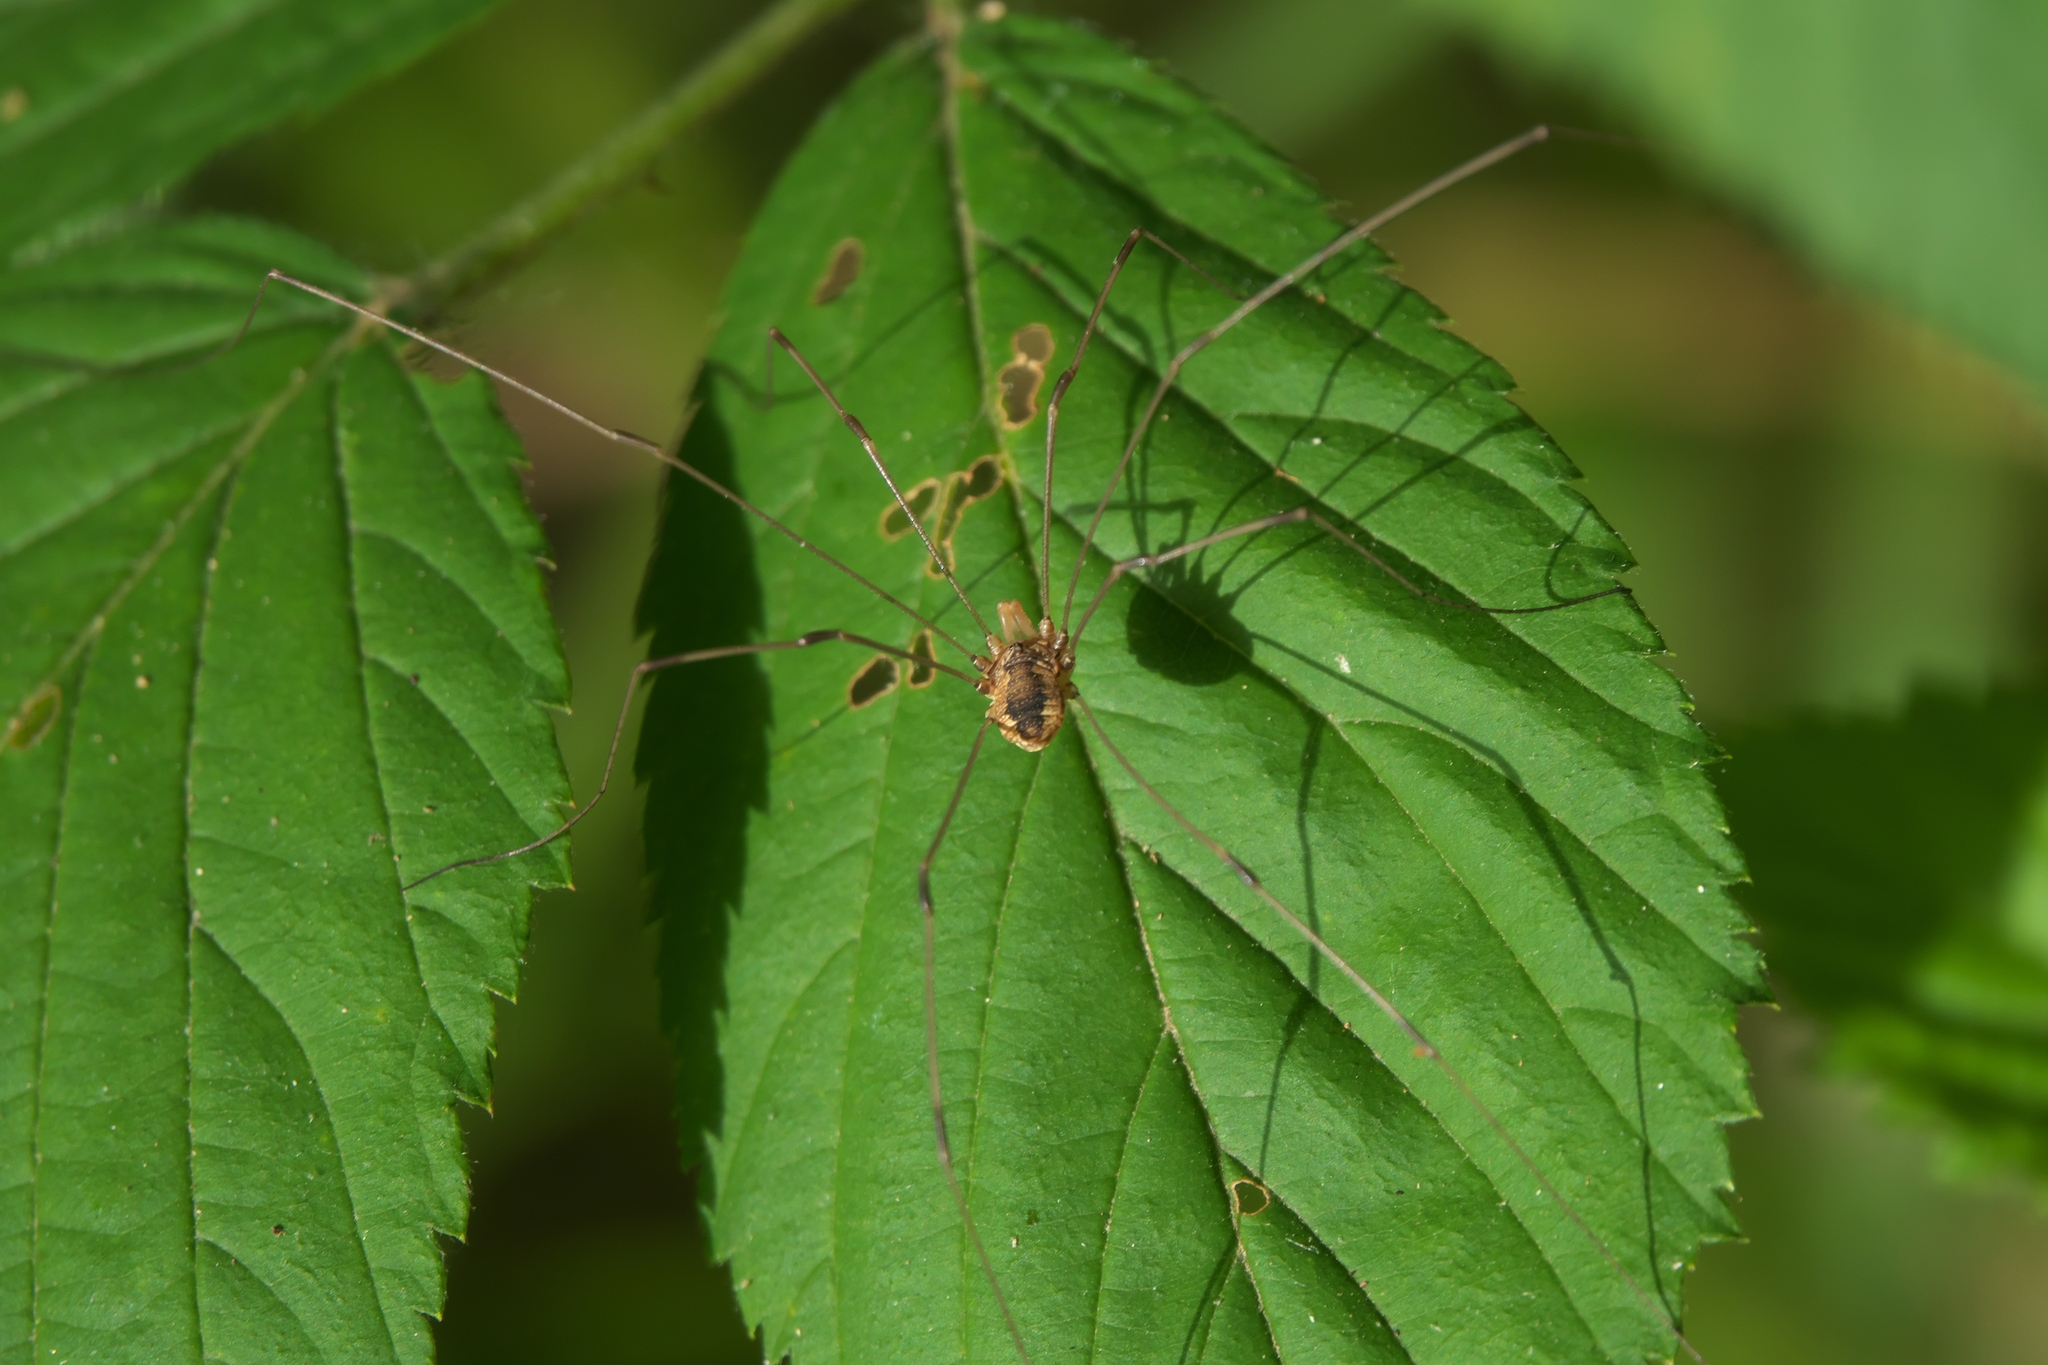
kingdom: Animalia
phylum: Arthropoda
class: Arachnida
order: Opiliones
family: Sclerosomatidae
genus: Leiobunum
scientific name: Leiobunum vittatum
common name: Eastern harvestman
